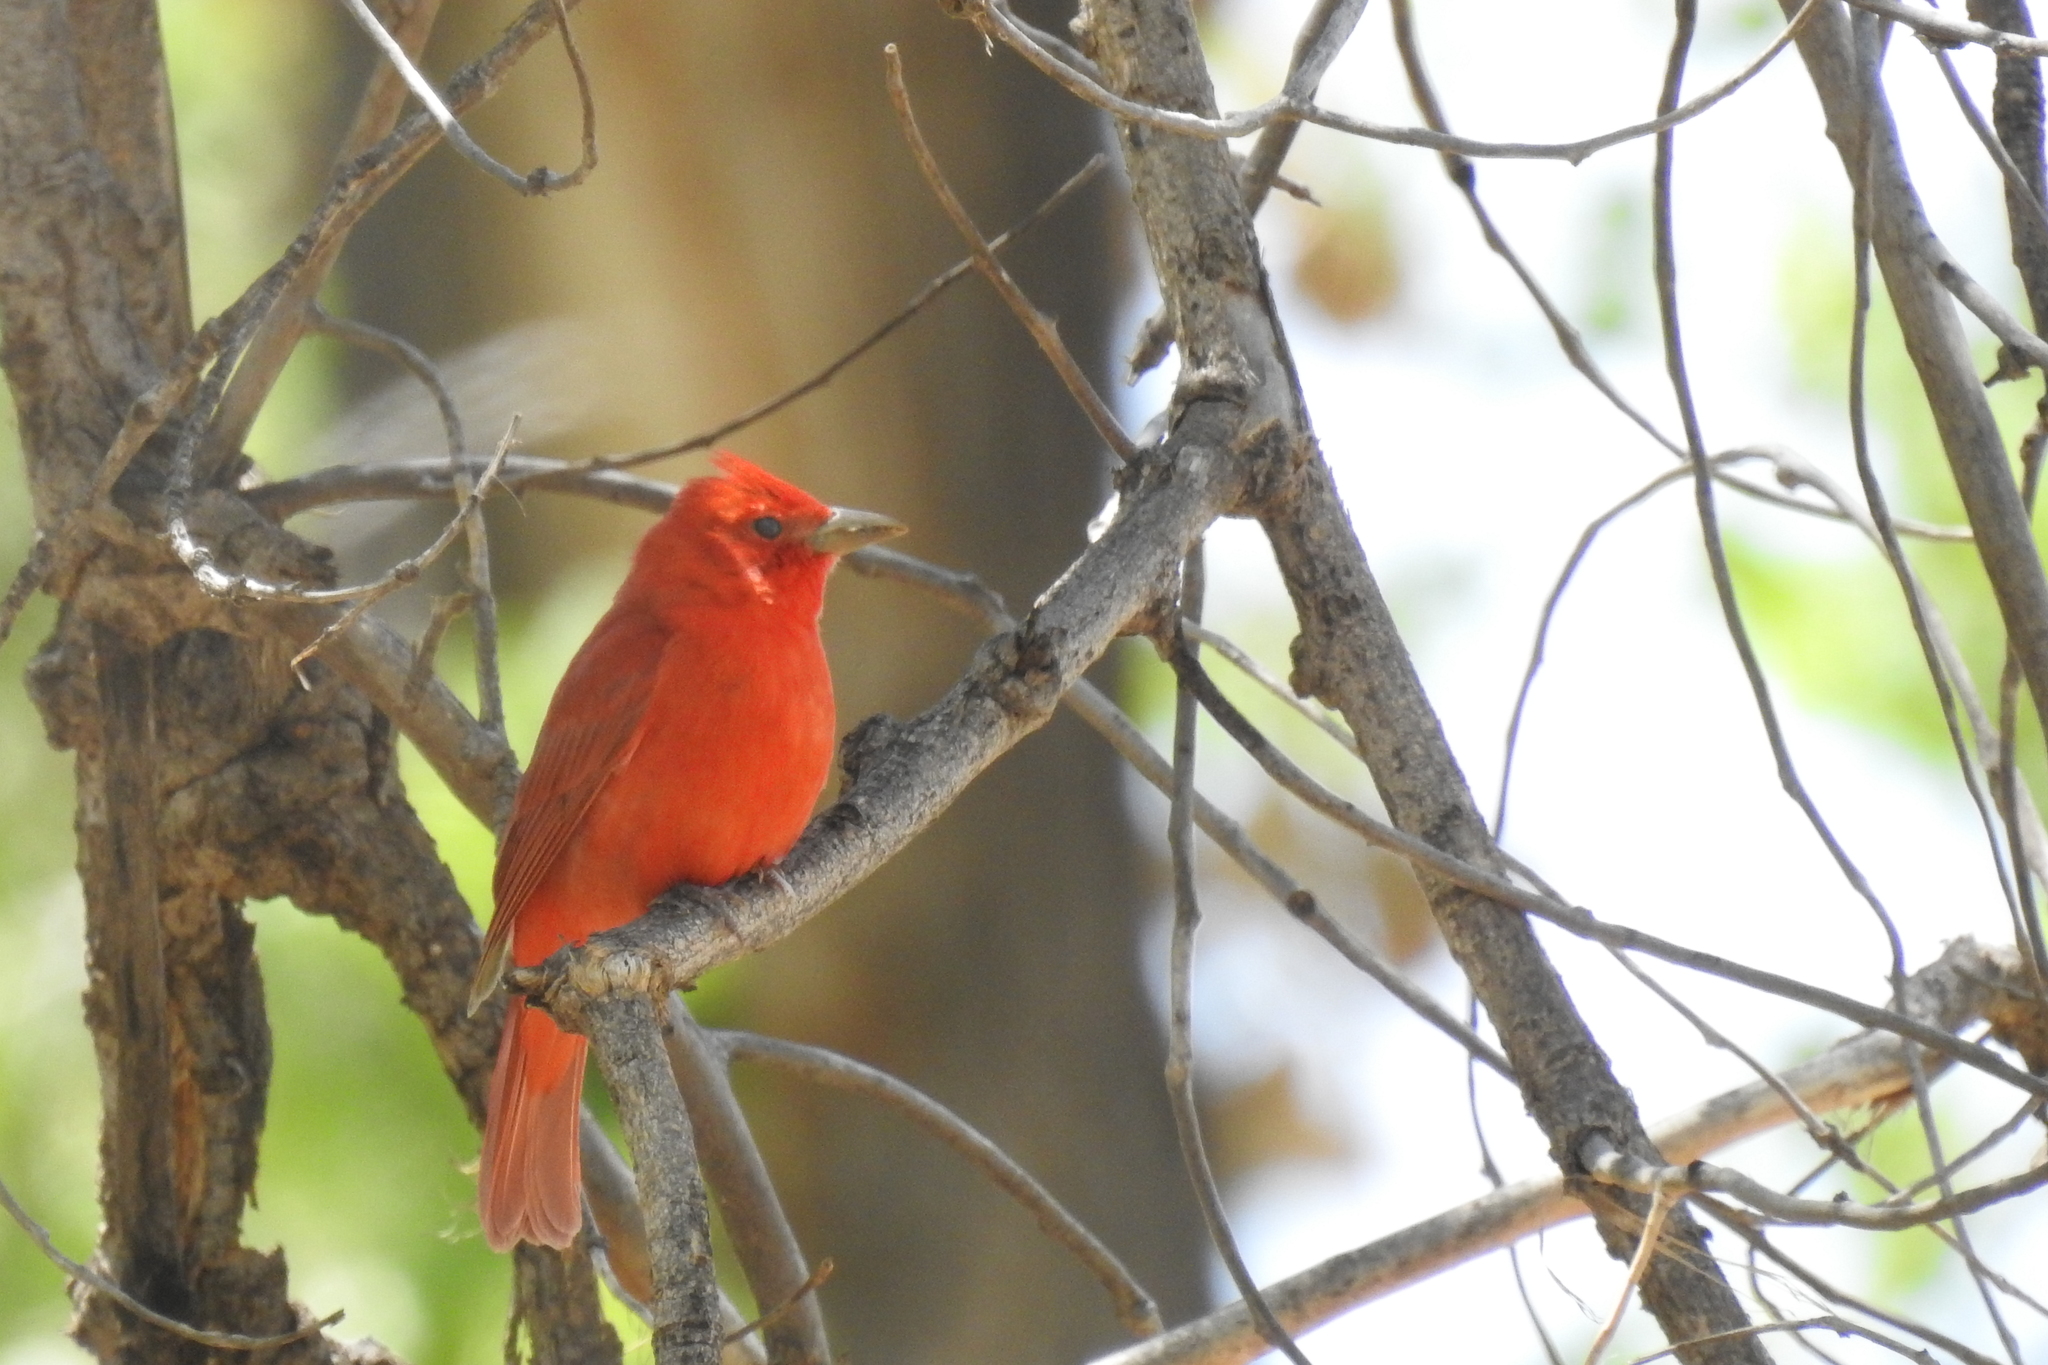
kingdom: Animalia
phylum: Chordata
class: Aves
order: Passeriformes
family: Cardinalidae
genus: Piranga
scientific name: Piranga rubra
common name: Summer tanager
